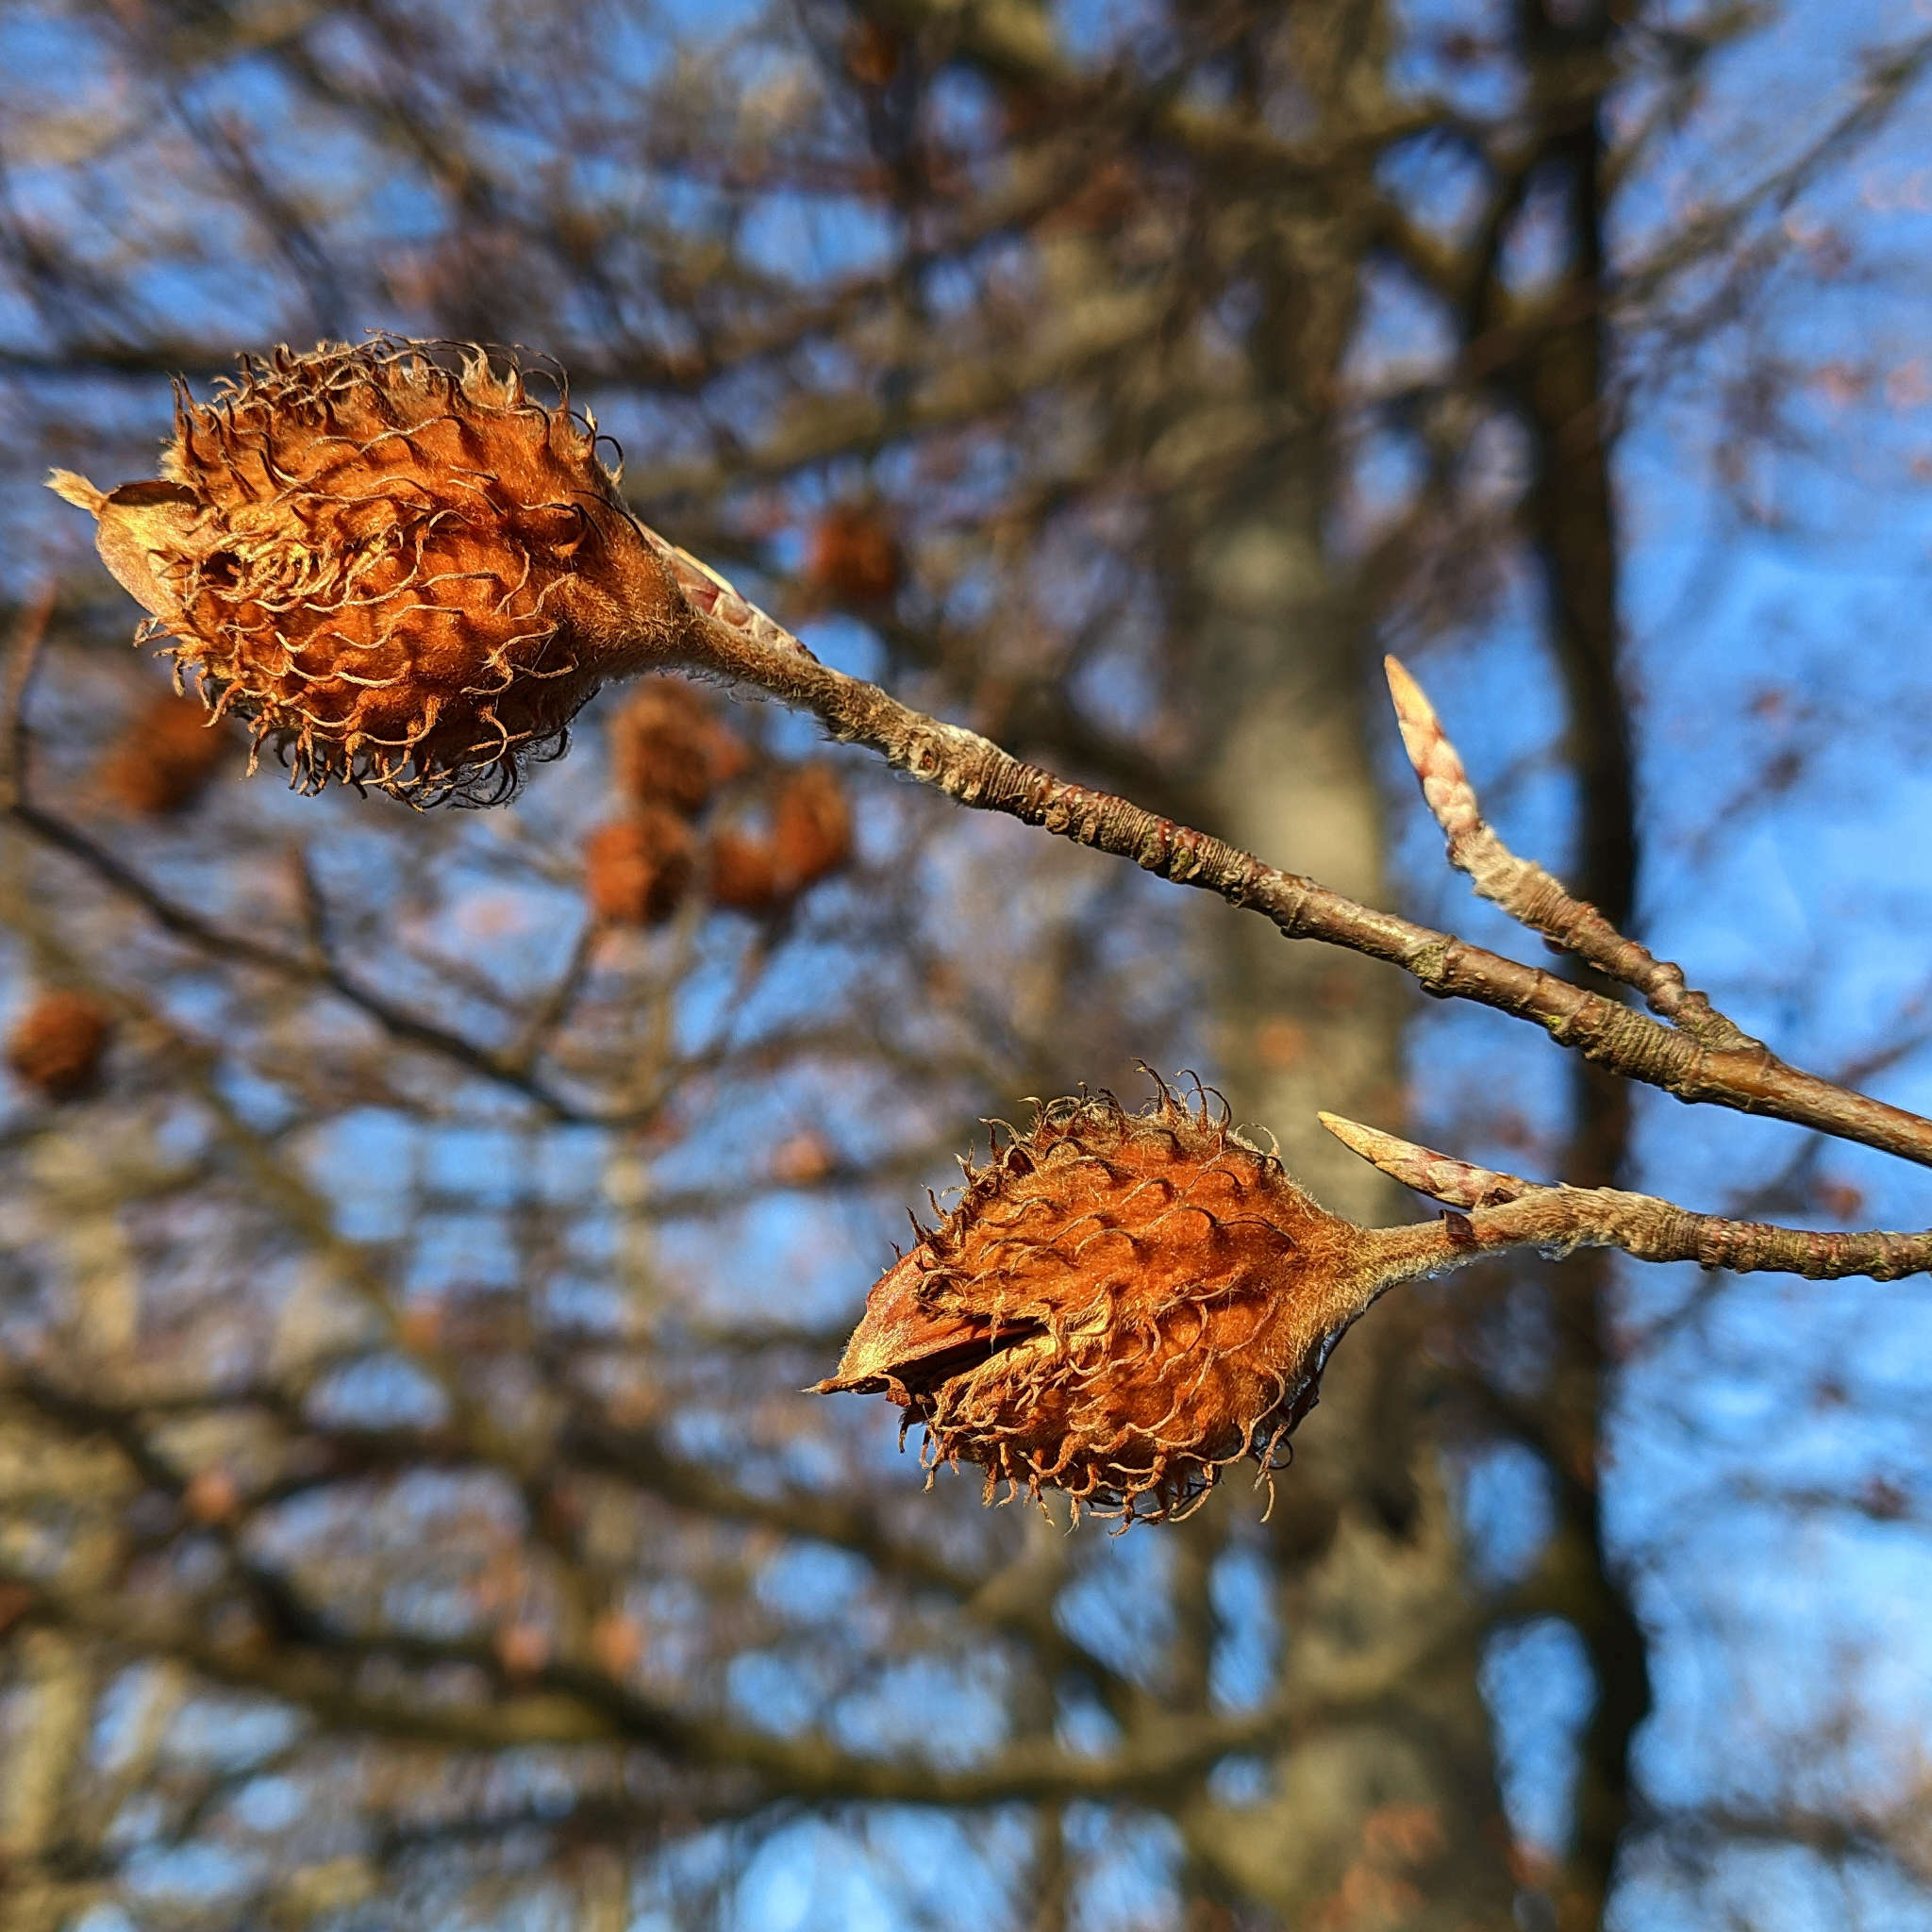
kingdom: Plantae
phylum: Tracheophyta
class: Magnoliopsida
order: Fagales
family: Fagaceae
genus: Fagus
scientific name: Fagus sylvatica
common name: Beech
